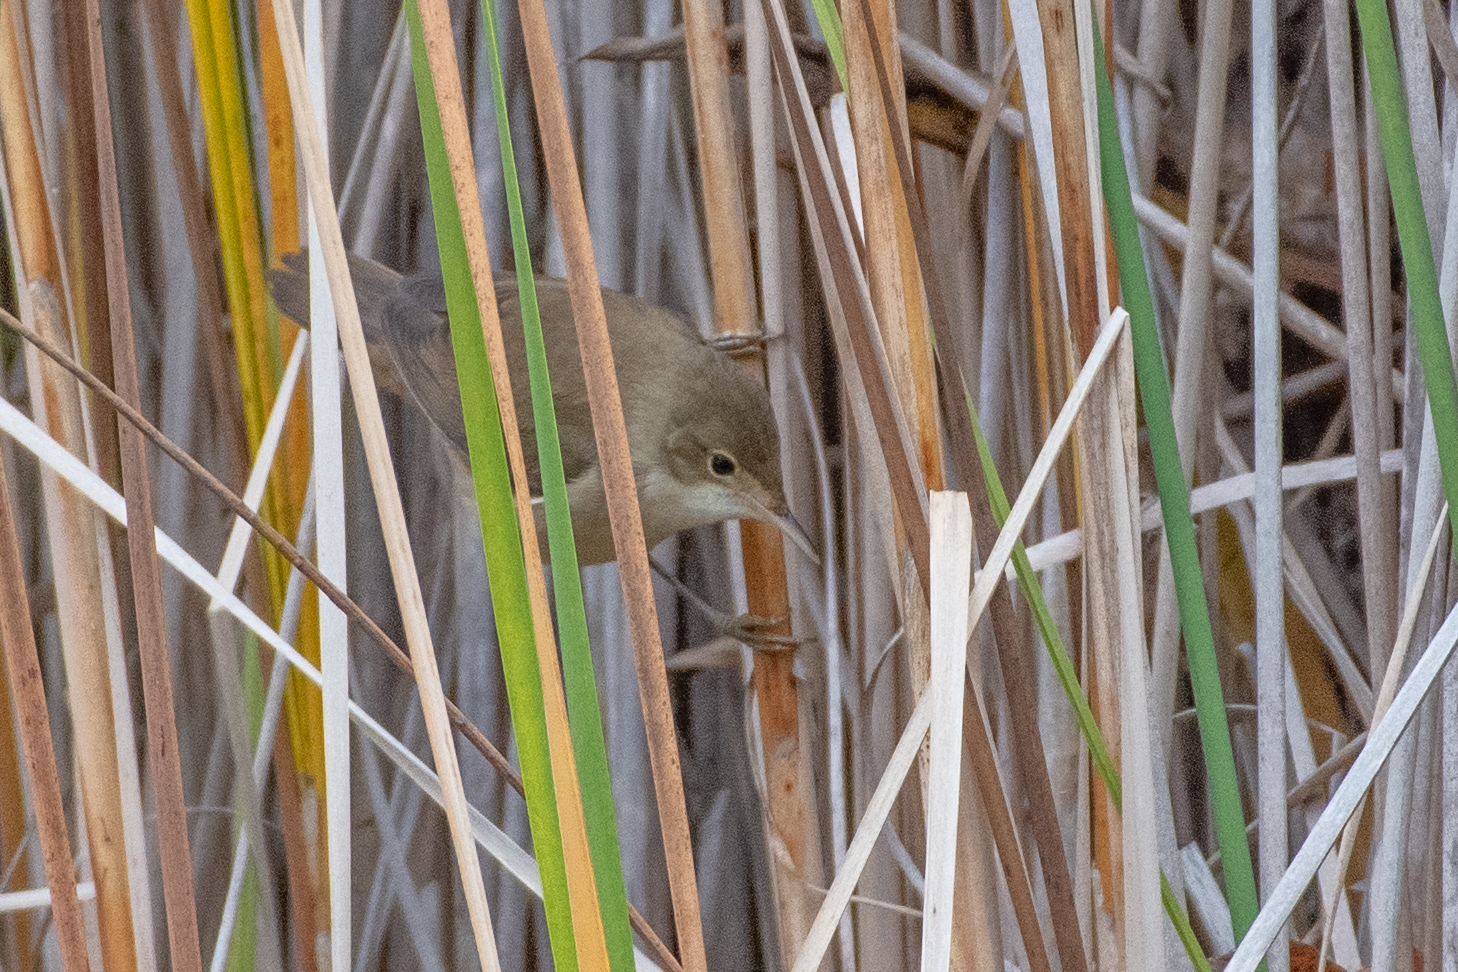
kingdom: Animalia
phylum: Chordata
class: Aves
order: Passeriformes
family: Acrocephalidae
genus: Acrocephalus
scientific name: Acrocephalus scirpaceus
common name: Eurasian reed warbler
